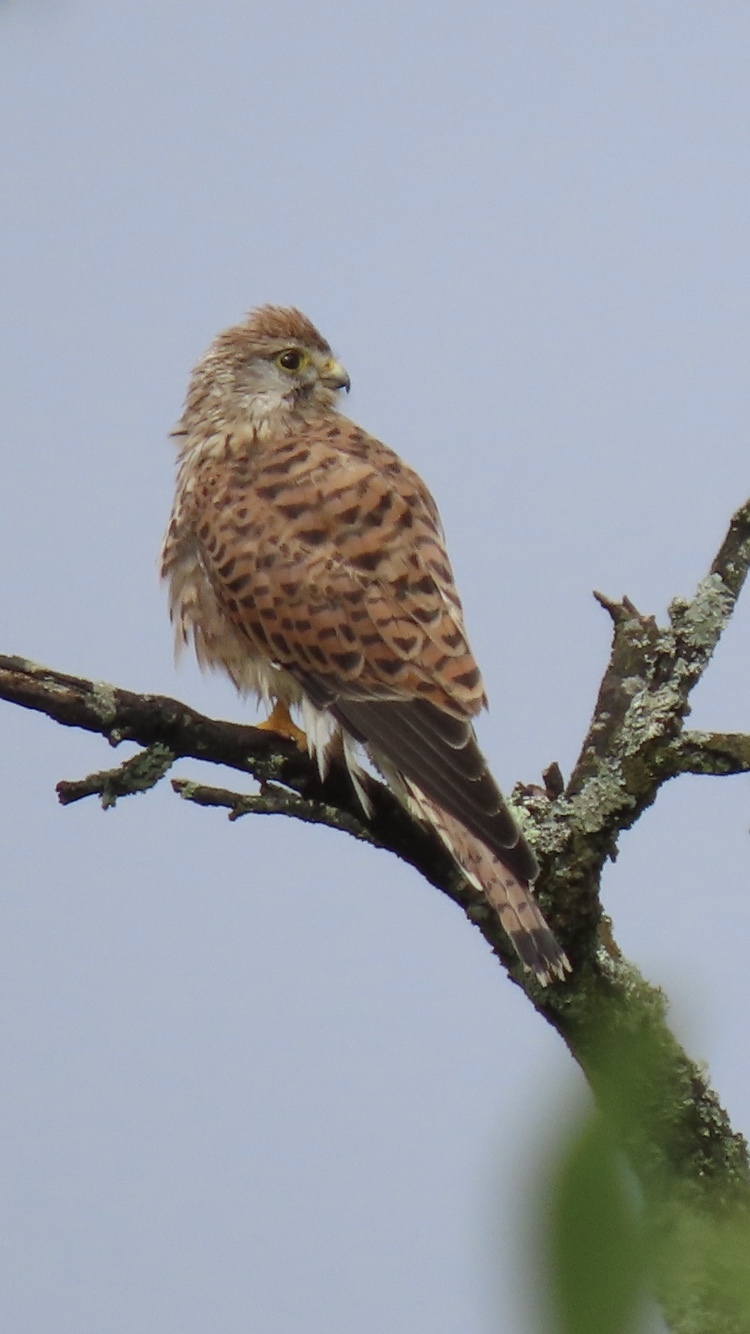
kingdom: Animalia
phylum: Chordata
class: Aves
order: Falconiformes
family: Falconidae
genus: Falco
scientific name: Falco tinnunculus
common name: Common kestrel
